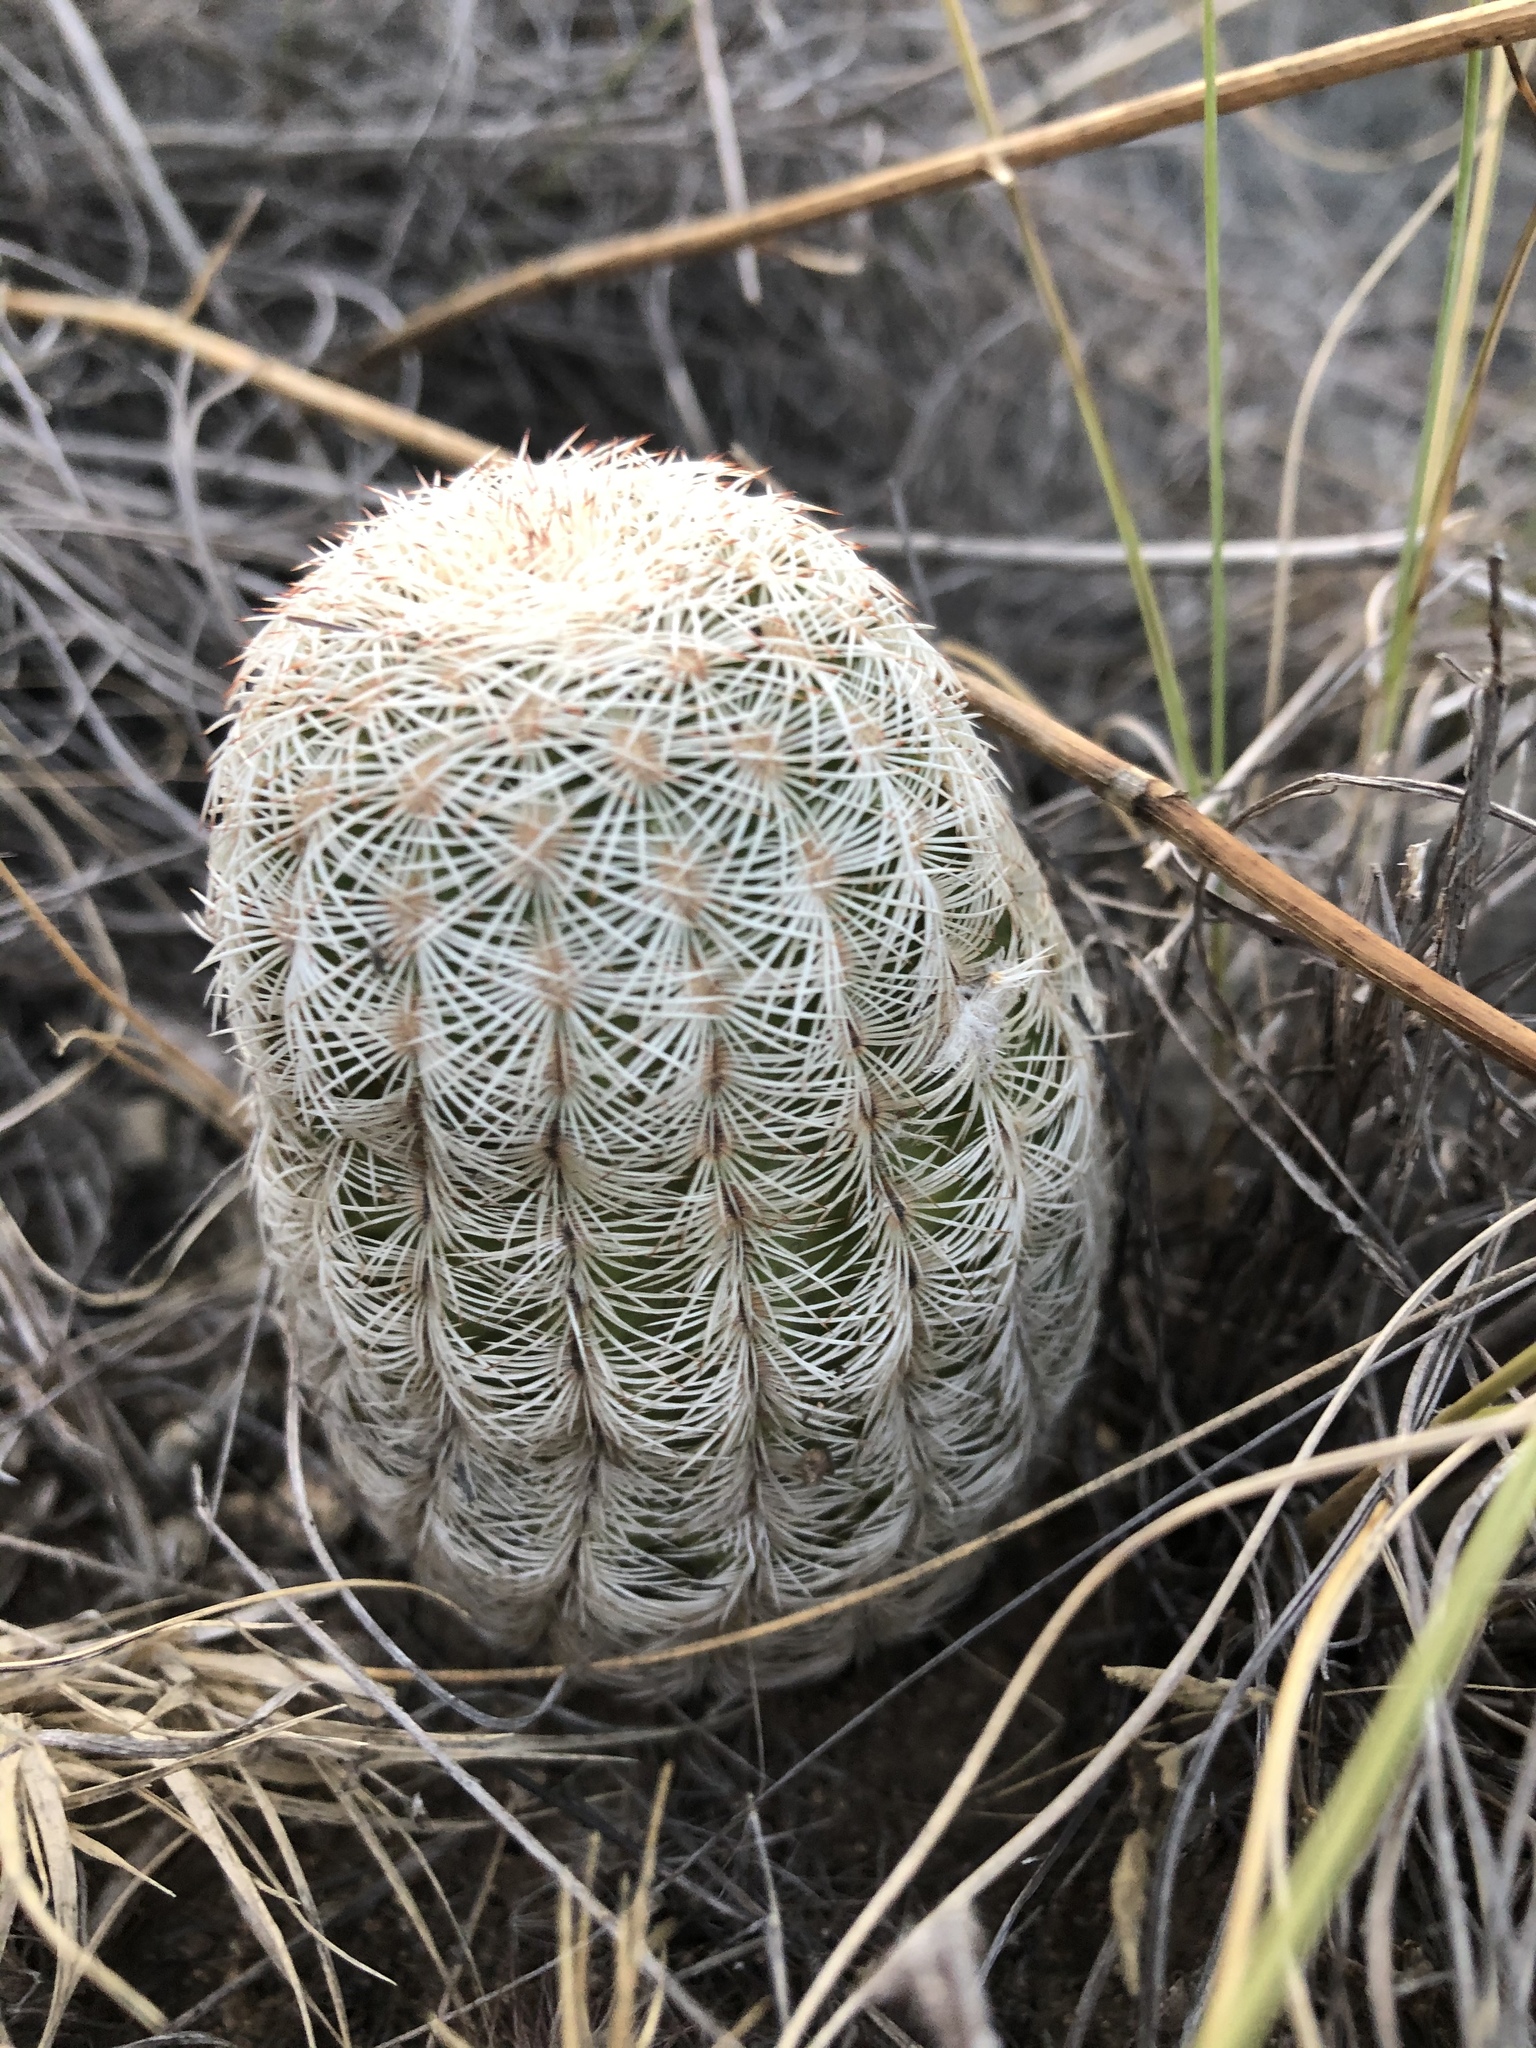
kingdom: Plantae
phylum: Tracheophyta
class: Magnoliopsida
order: Caryophyllales
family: Cactaceae
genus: Echinocereus
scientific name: Echinocereus reichenbachii
